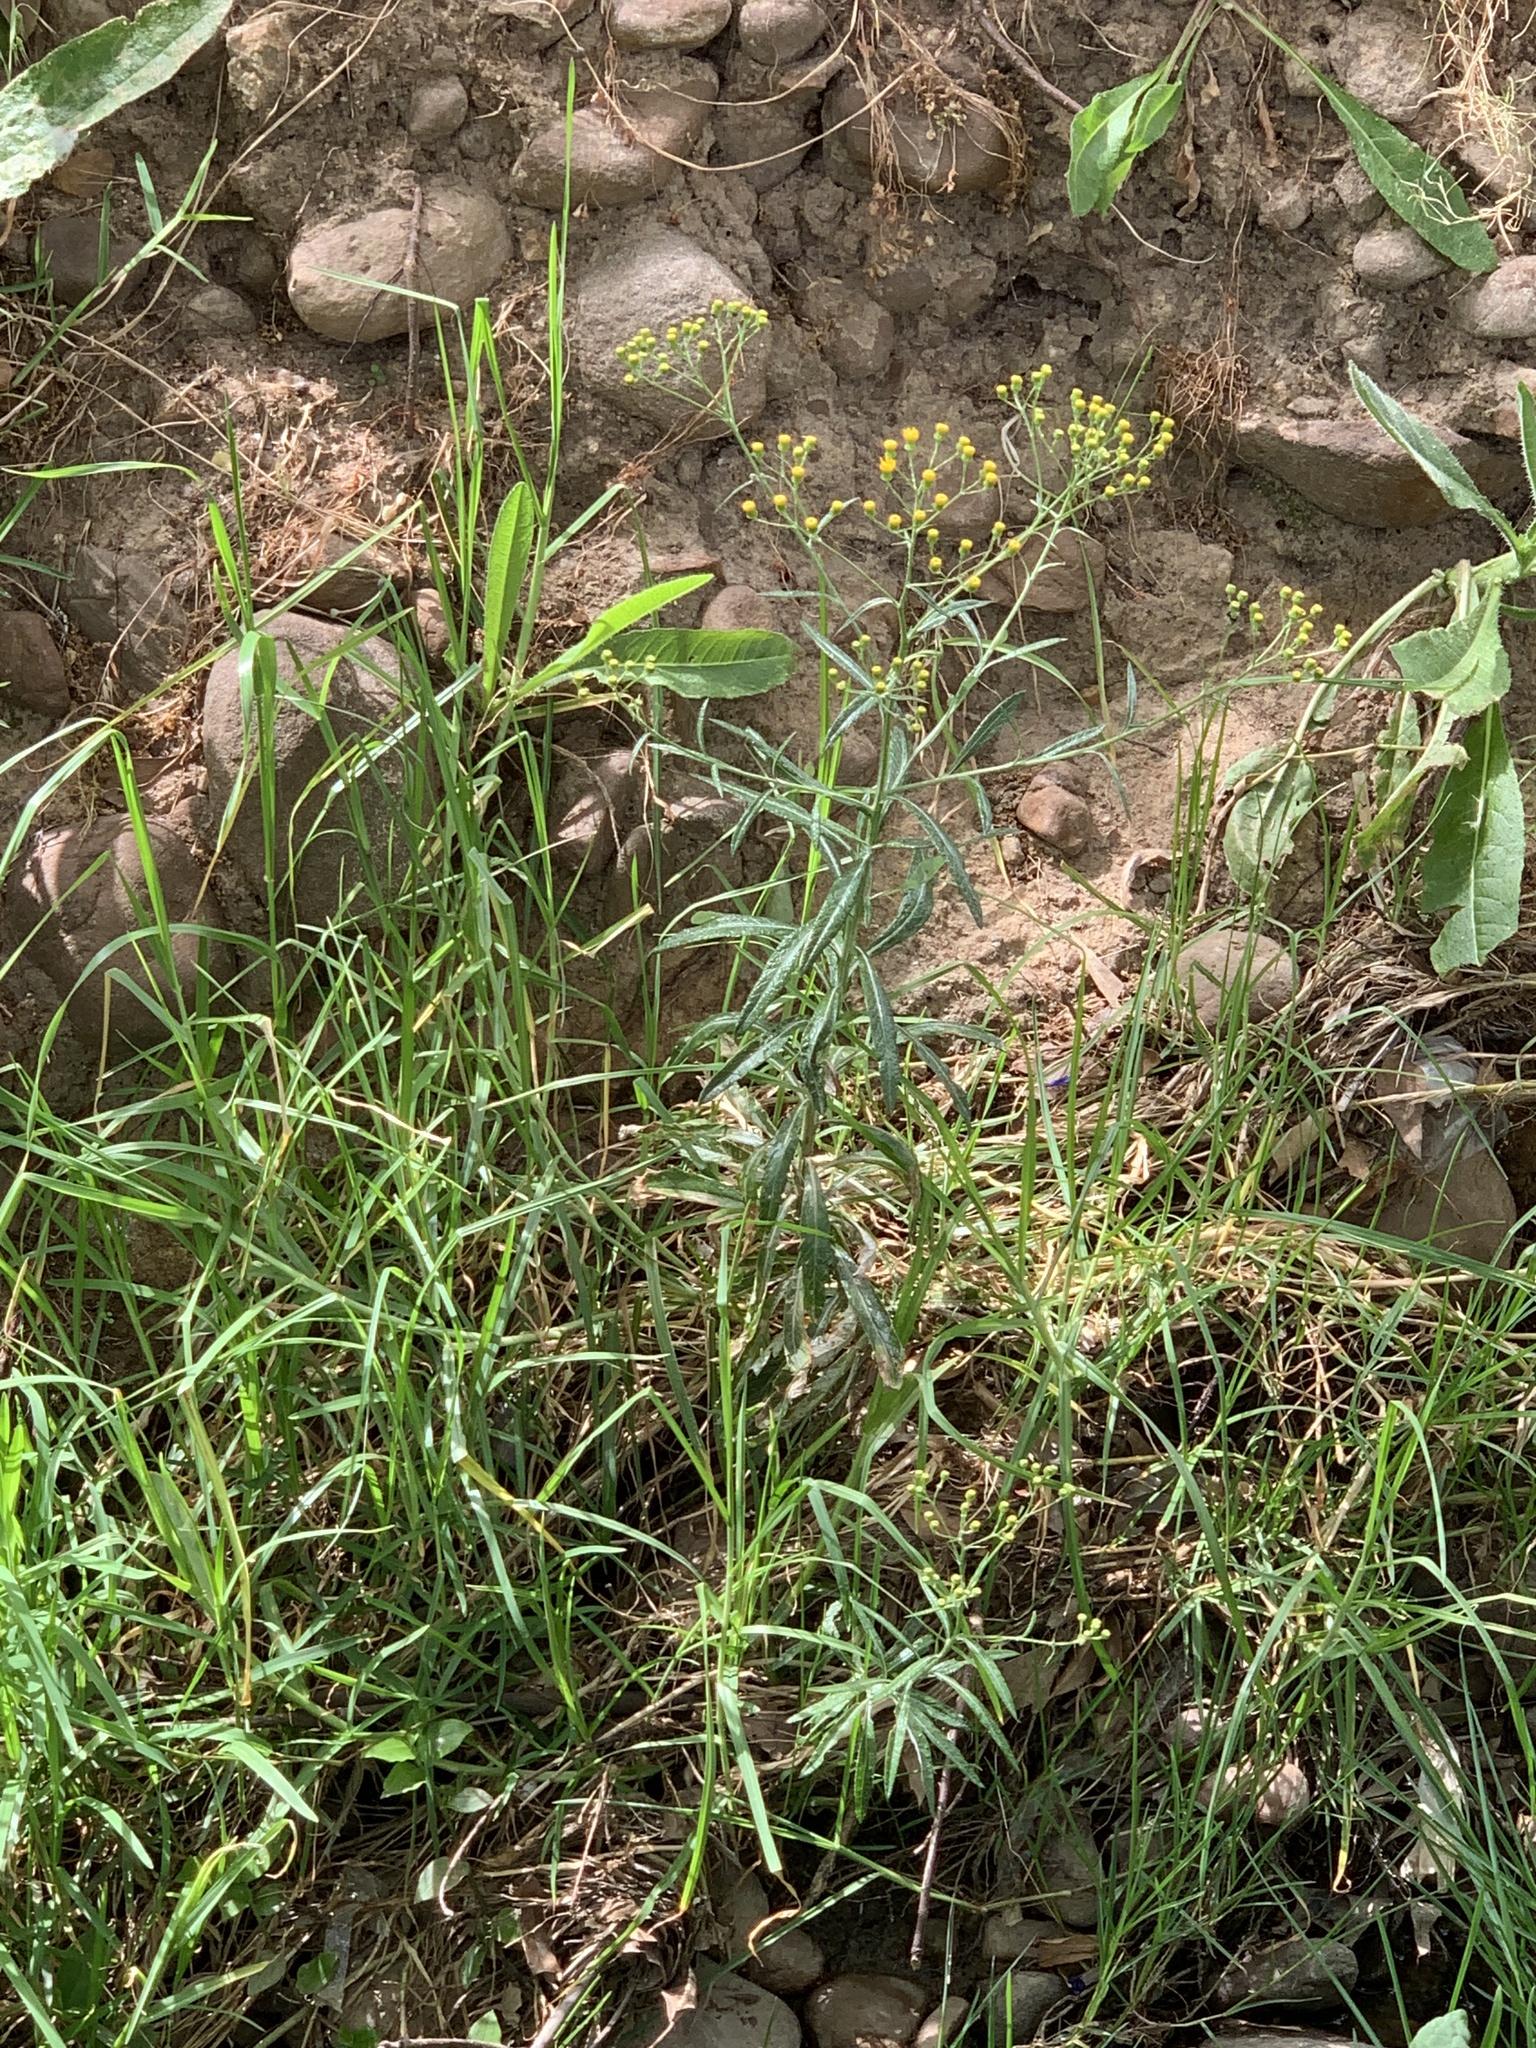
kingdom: Plantae
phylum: Tracheophyta
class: Magnoliopsida
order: Asterales
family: Asteraceae
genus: Senecio
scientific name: Senecio pterophorus
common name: Shoddy ragwort
